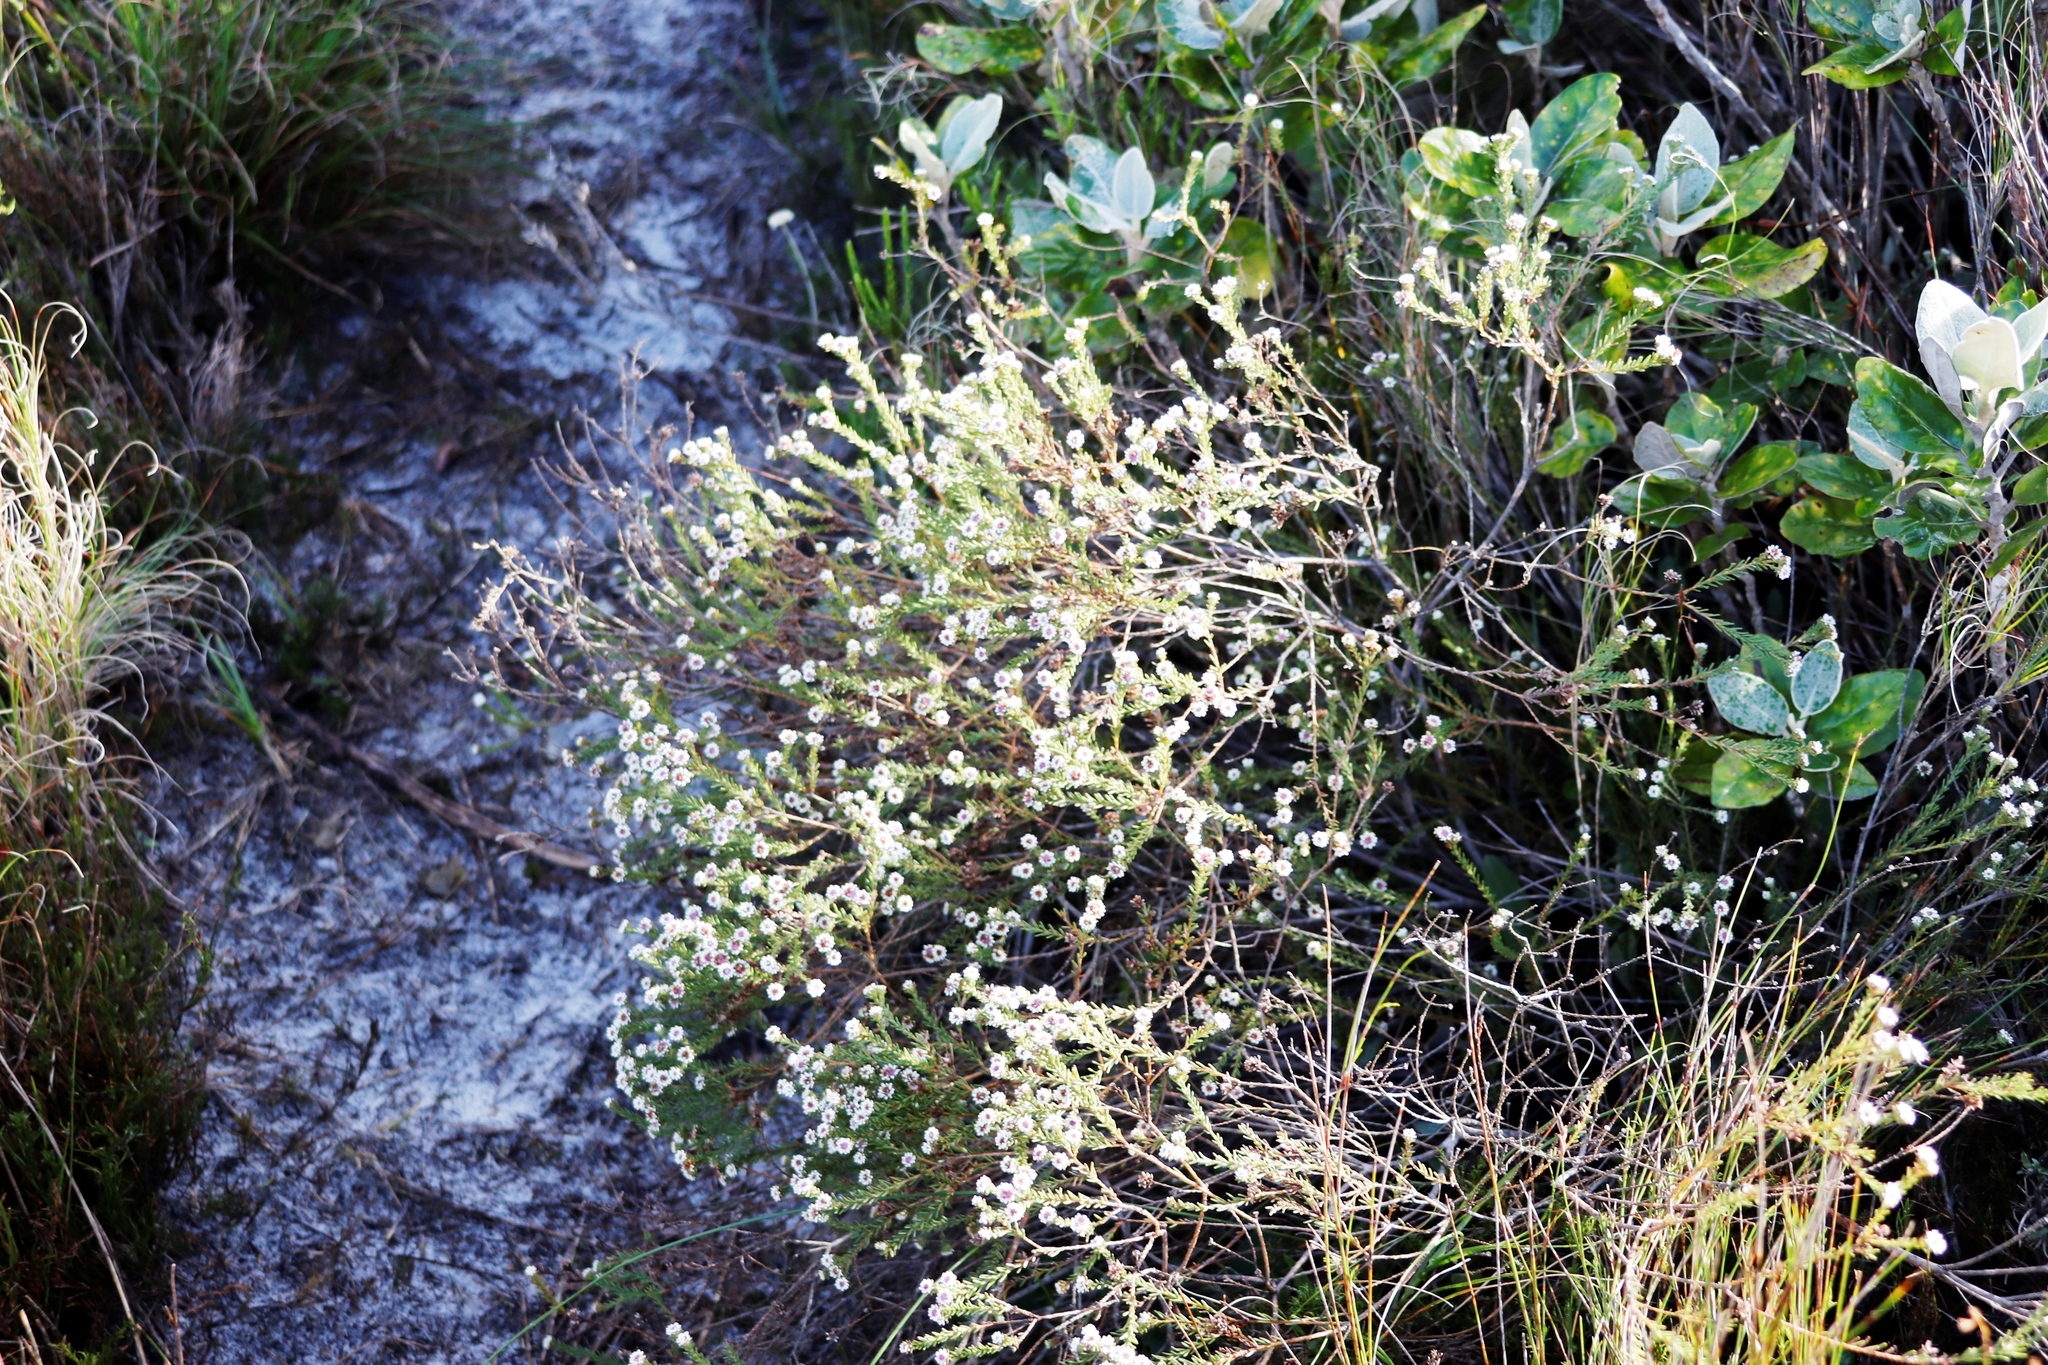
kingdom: Plantae
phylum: Tracheophyta
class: Magnoliopsida
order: Bruniales
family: Bruniaceae
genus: Staavia
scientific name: Staavia radiata
